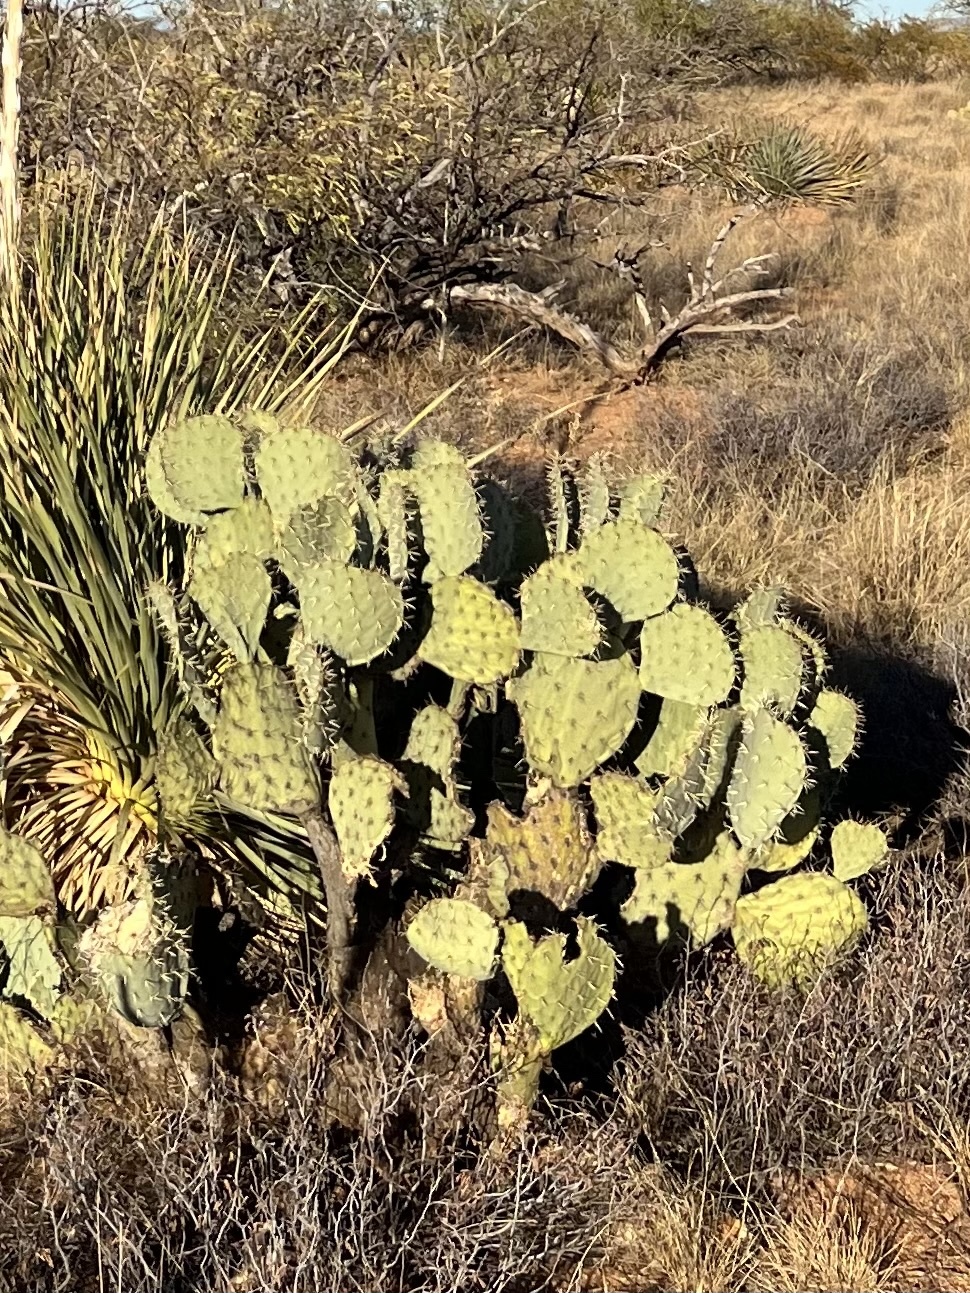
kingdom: Plantae
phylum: Tracheophyta
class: Magnoliopsida
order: Caryophyllales
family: Cactaceae
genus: Opuntia
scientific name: Opuntia engelmannii
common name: Cactus-apple
